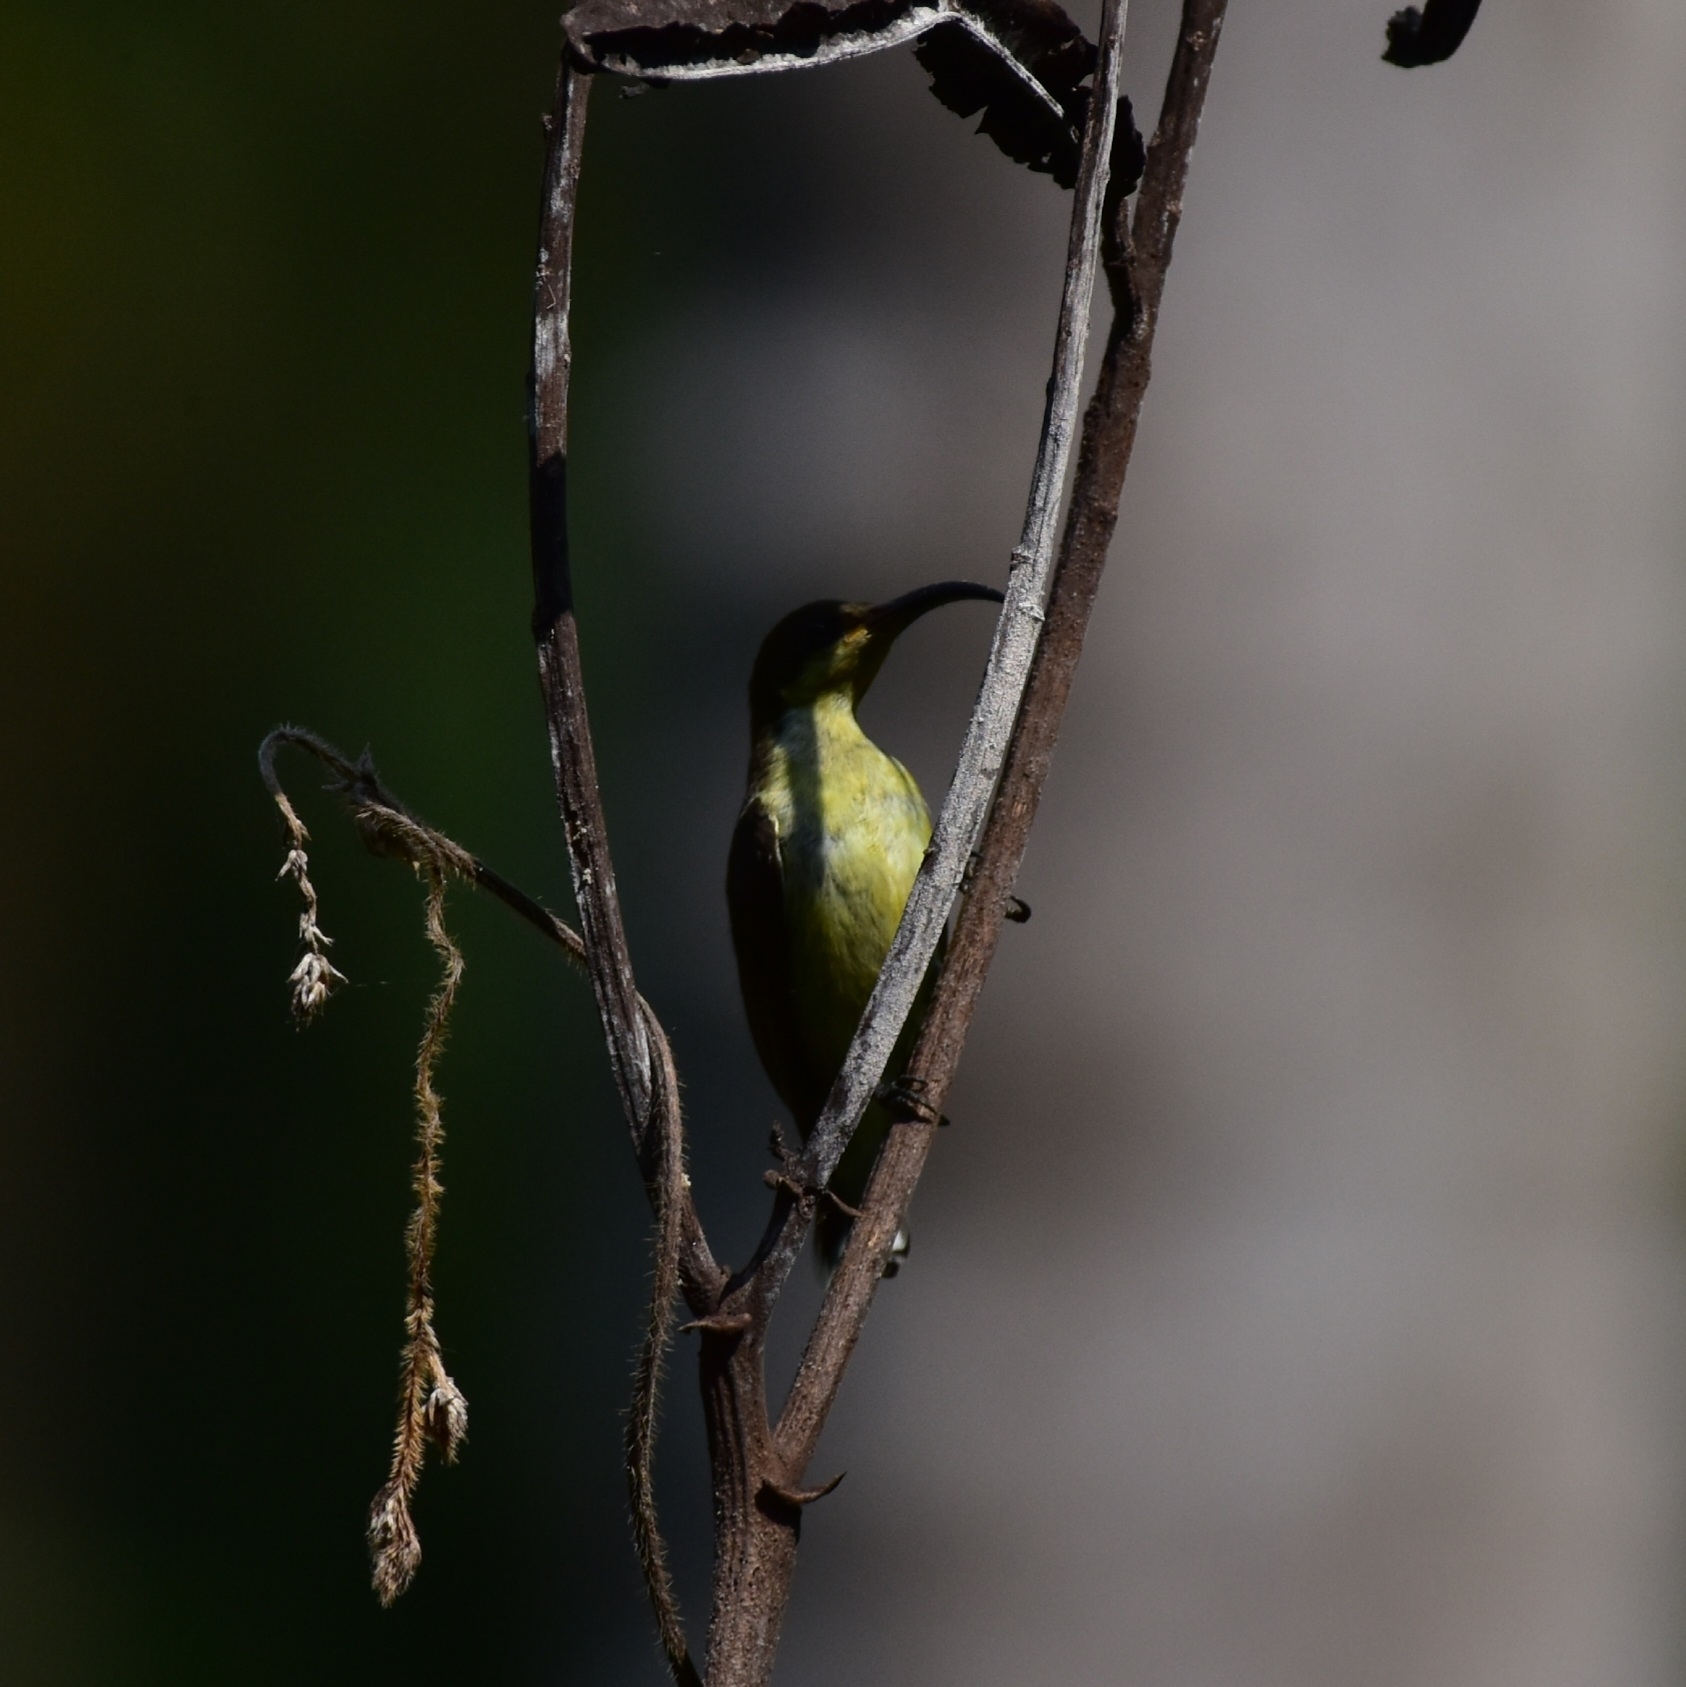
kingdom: Animalia
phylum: Chordata
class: Aves
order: Passeriformes
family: Nectariniidae
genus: Cinnyris
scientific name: Cinnyris lotenius
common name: Loten's sunbird
